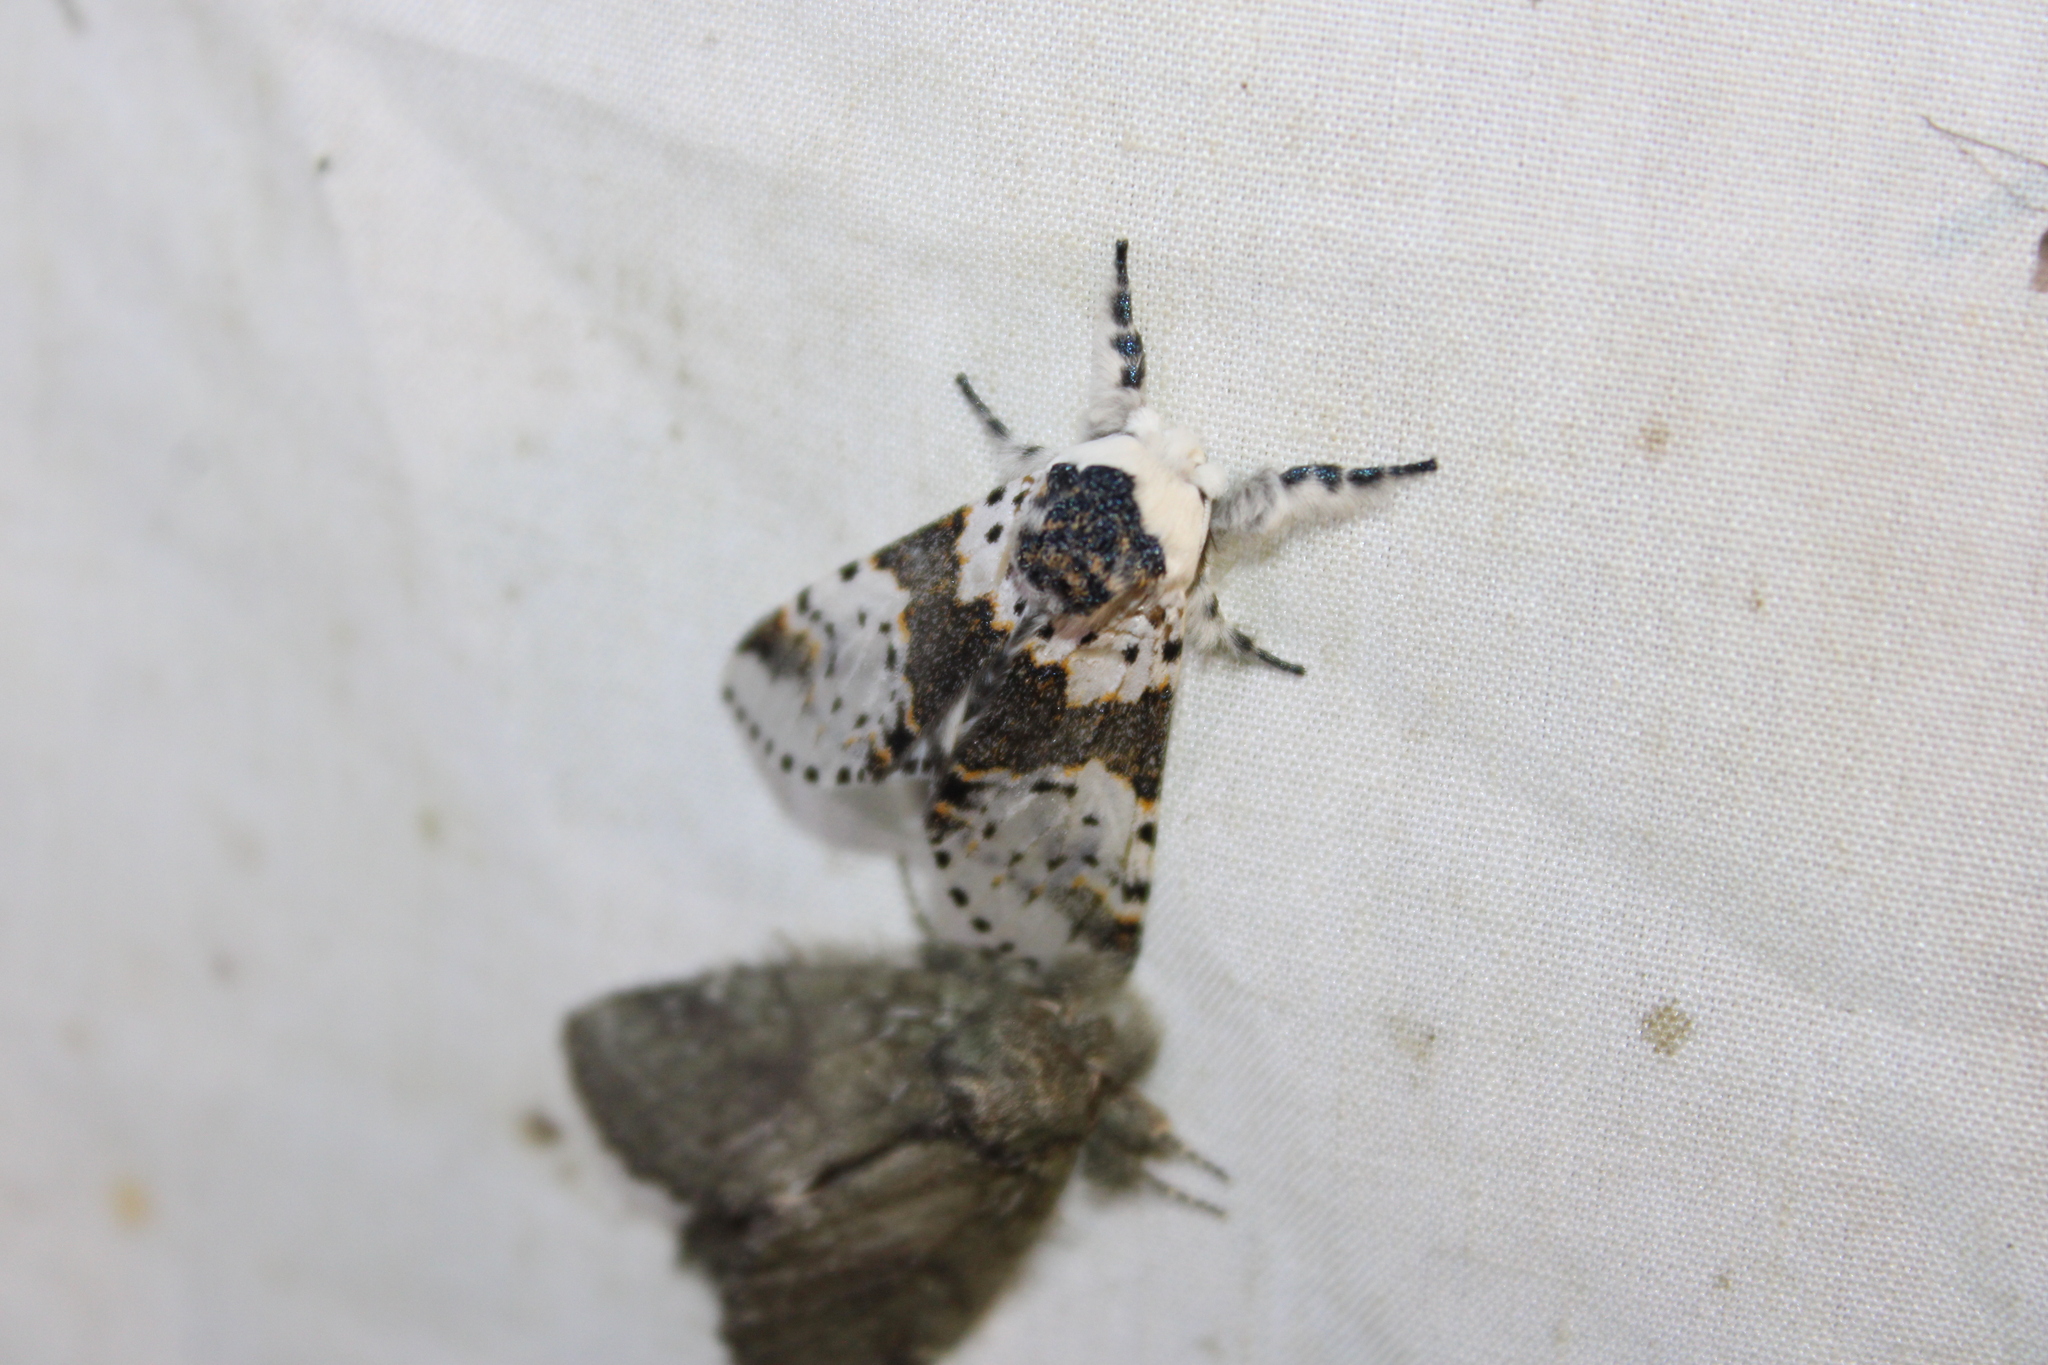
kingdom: Animalia
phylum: Arthropoda
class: Insecta
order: Lepidoptera
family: Notodontidae
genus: Furcula
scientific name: Furcula borealis
